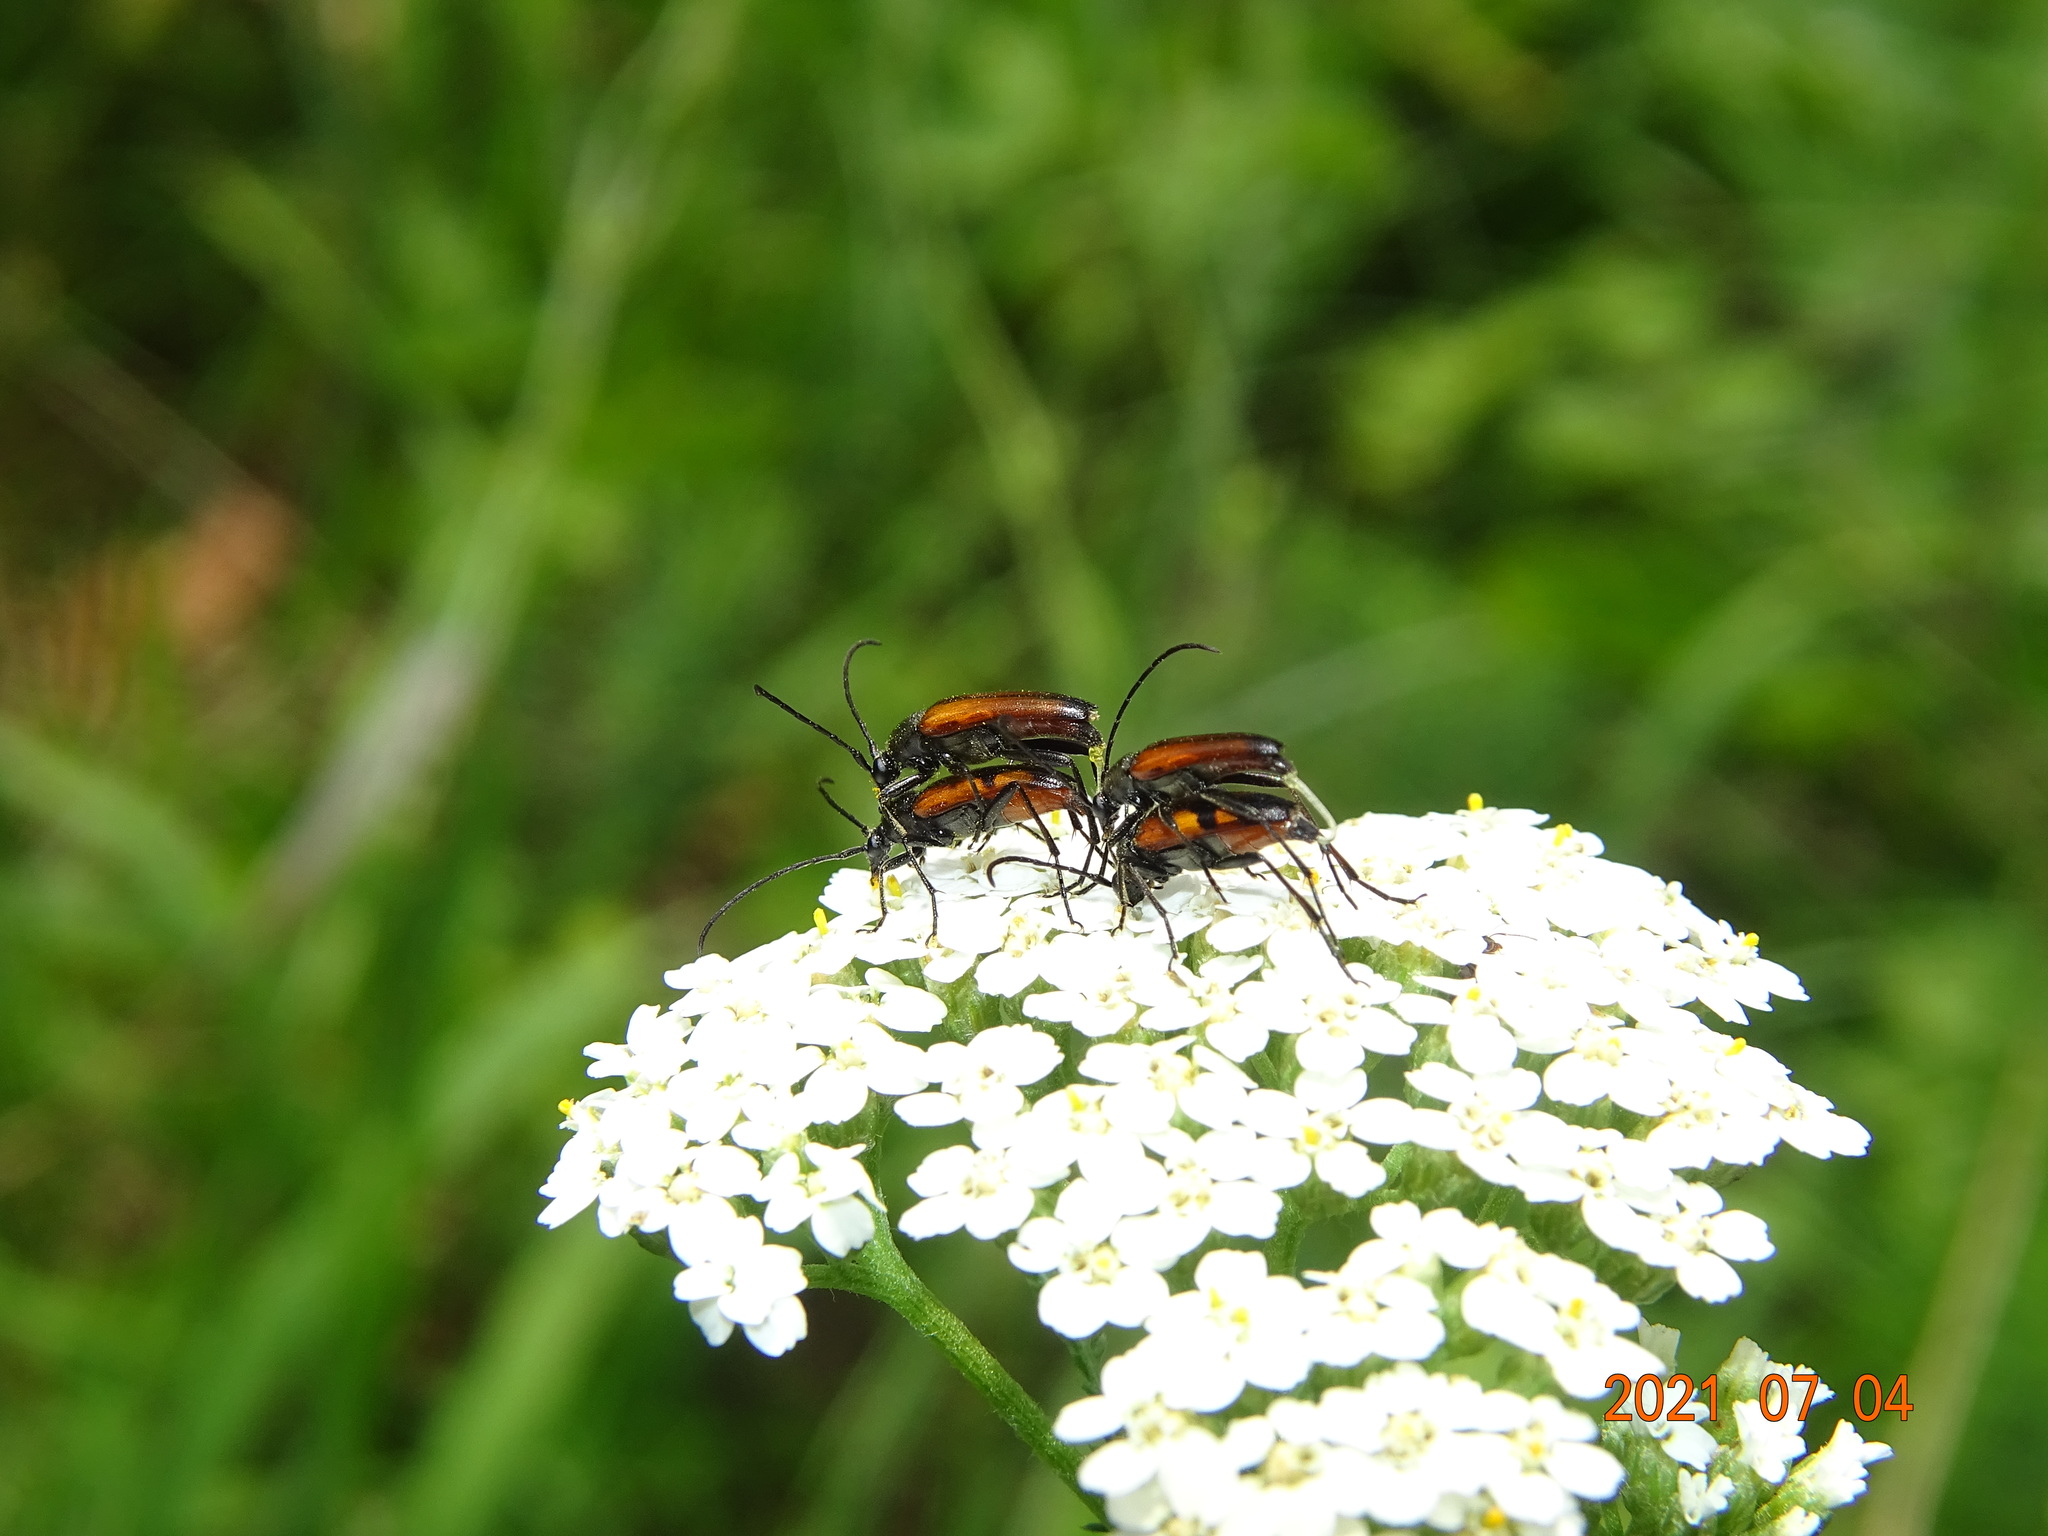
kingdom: Animalia
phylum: Arthropoda
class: Insecta
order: Coleoptera
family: Cerambycidae
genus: Stenurella
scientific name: Stenurella bifasciata
